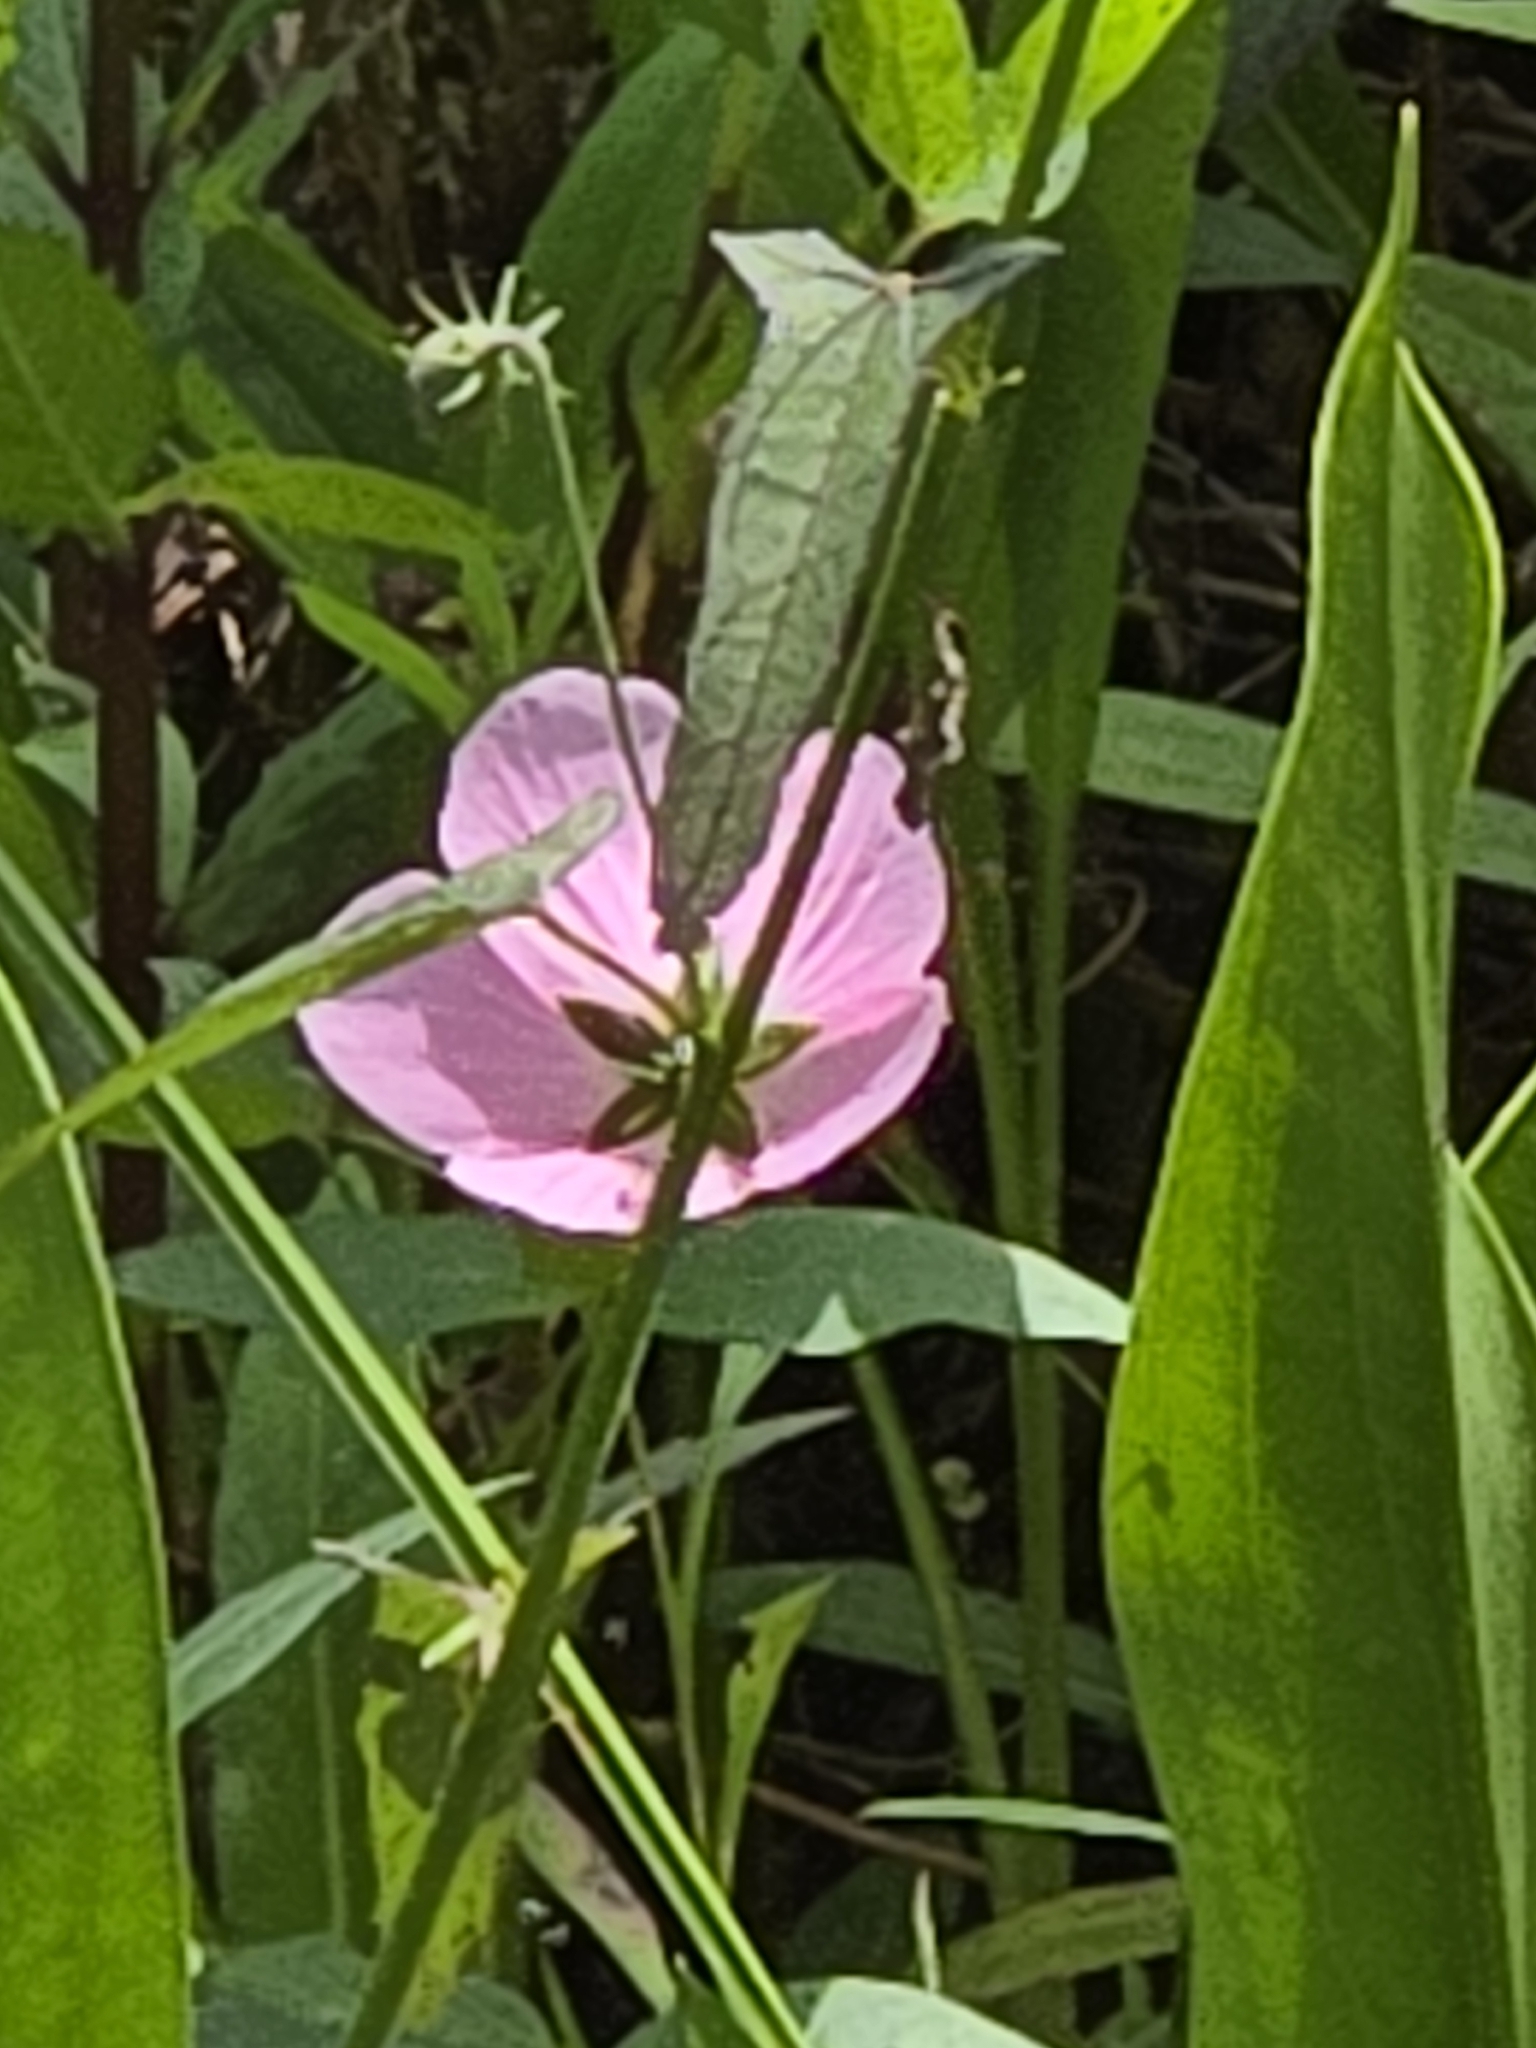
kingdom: Plantae
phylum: Tracheophyta
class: Magnoliopsida
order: Malvales
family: Malvaceae
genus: Kosteletzkya
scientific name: Kosteletzkya pentacarpos
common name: Virginia saltmarsh mallow
